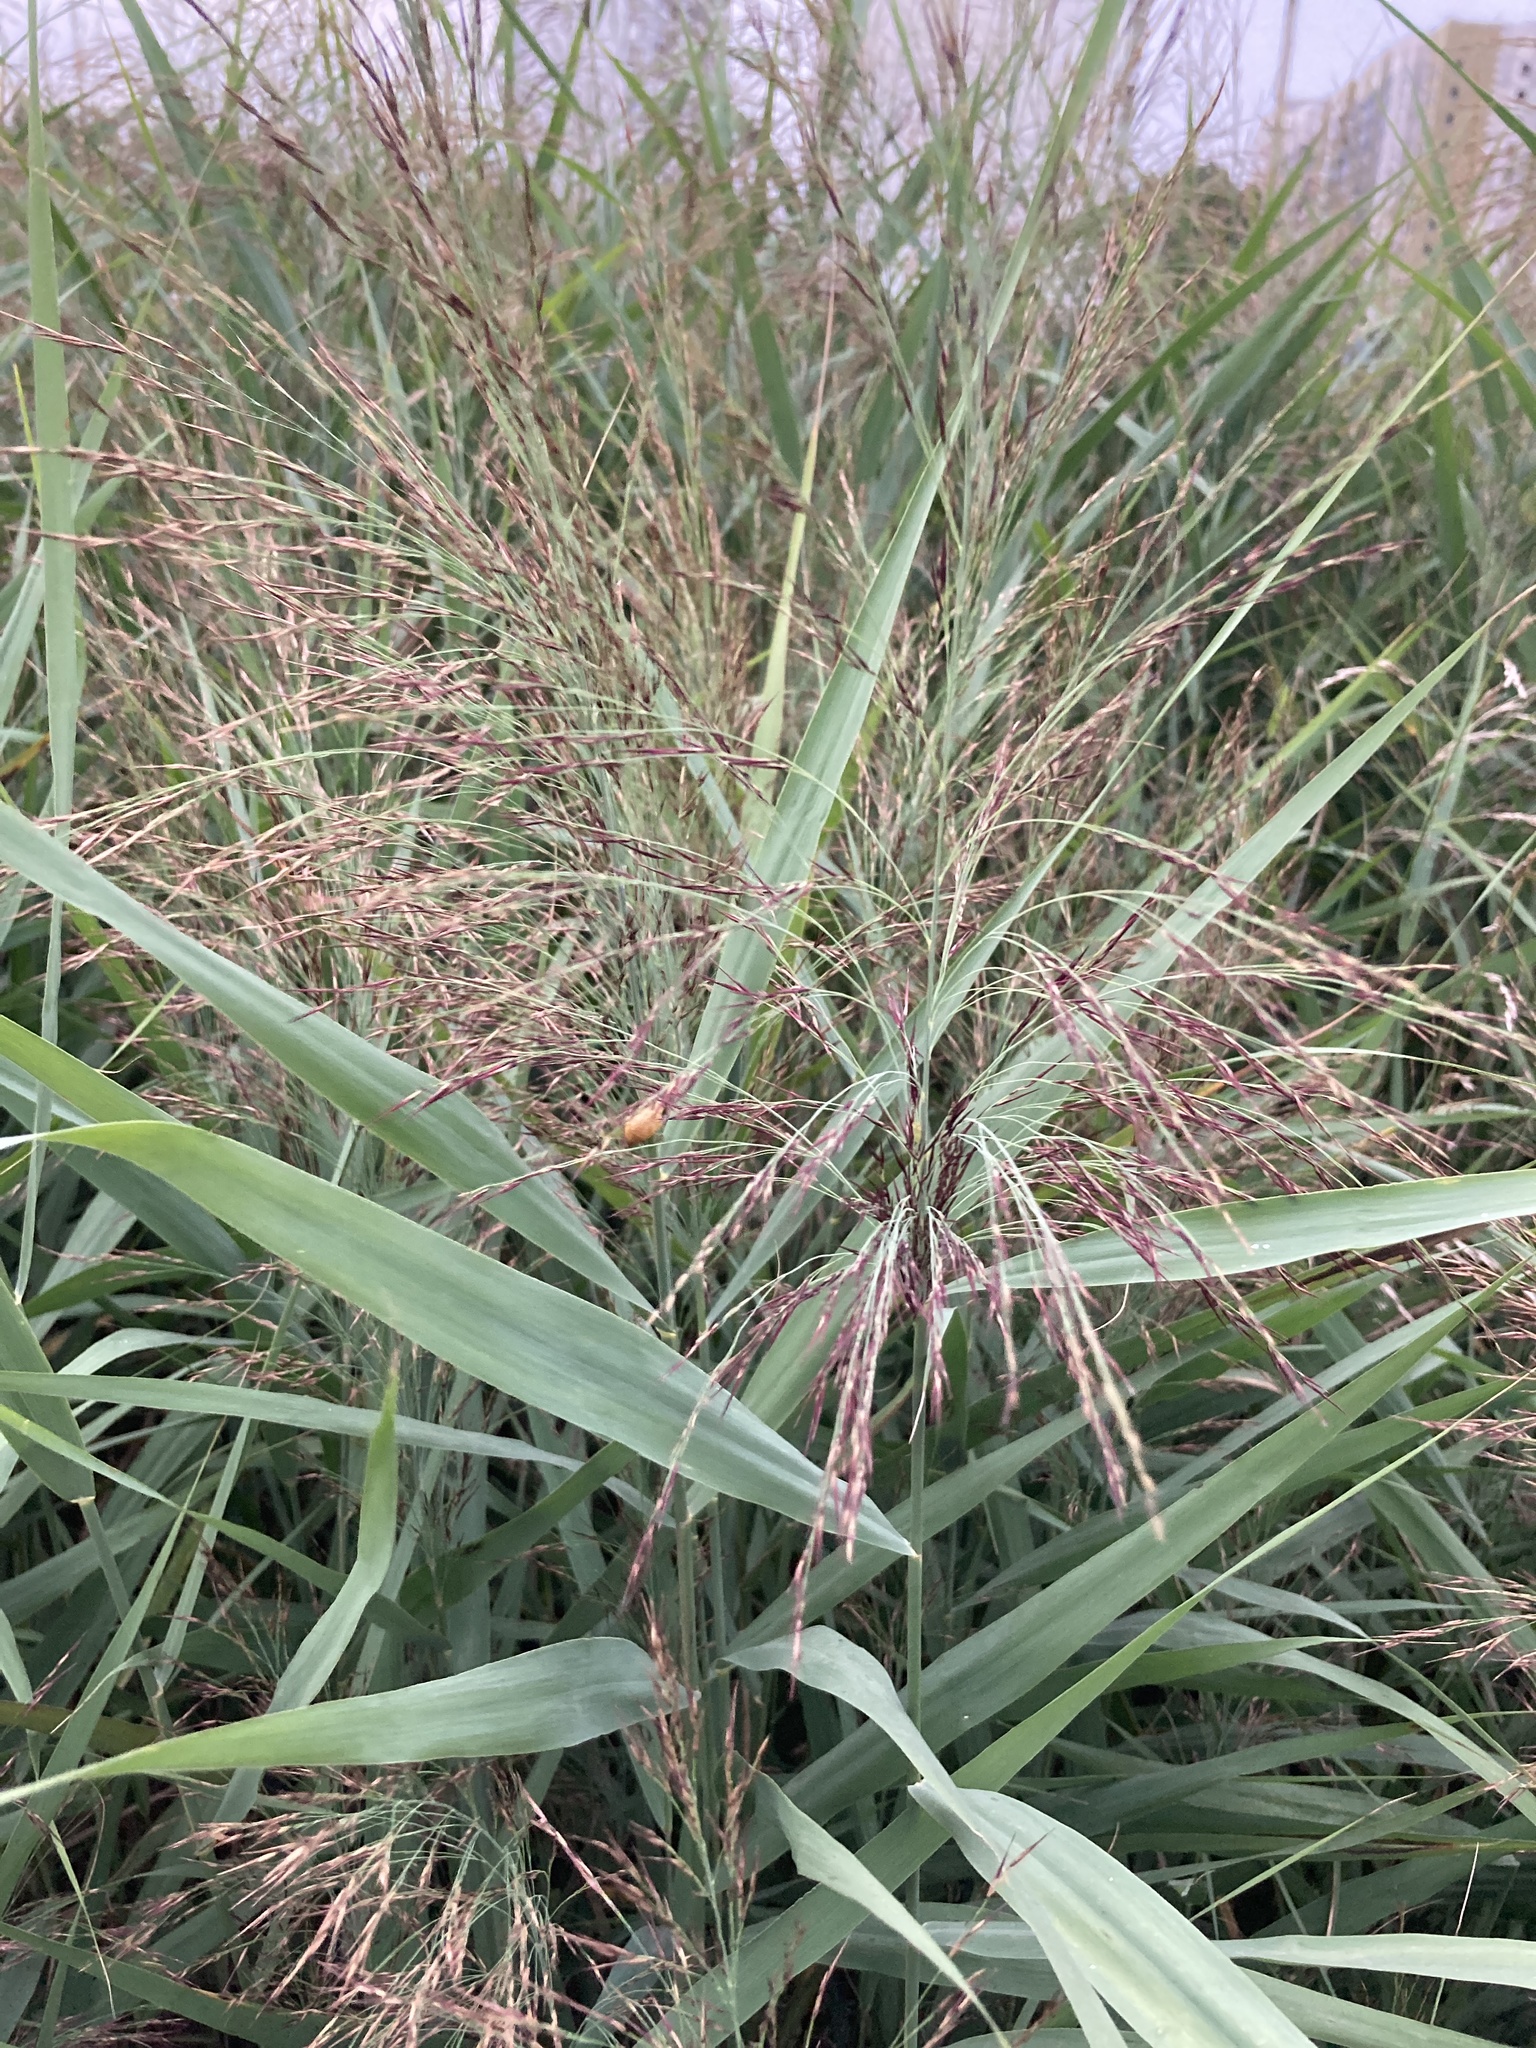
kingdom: Plantae
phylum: Tracheophyta
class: Liliopsida
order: Poales
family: Poaceae
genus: Phragmites
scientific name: Phragmites australis
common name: Common reed
